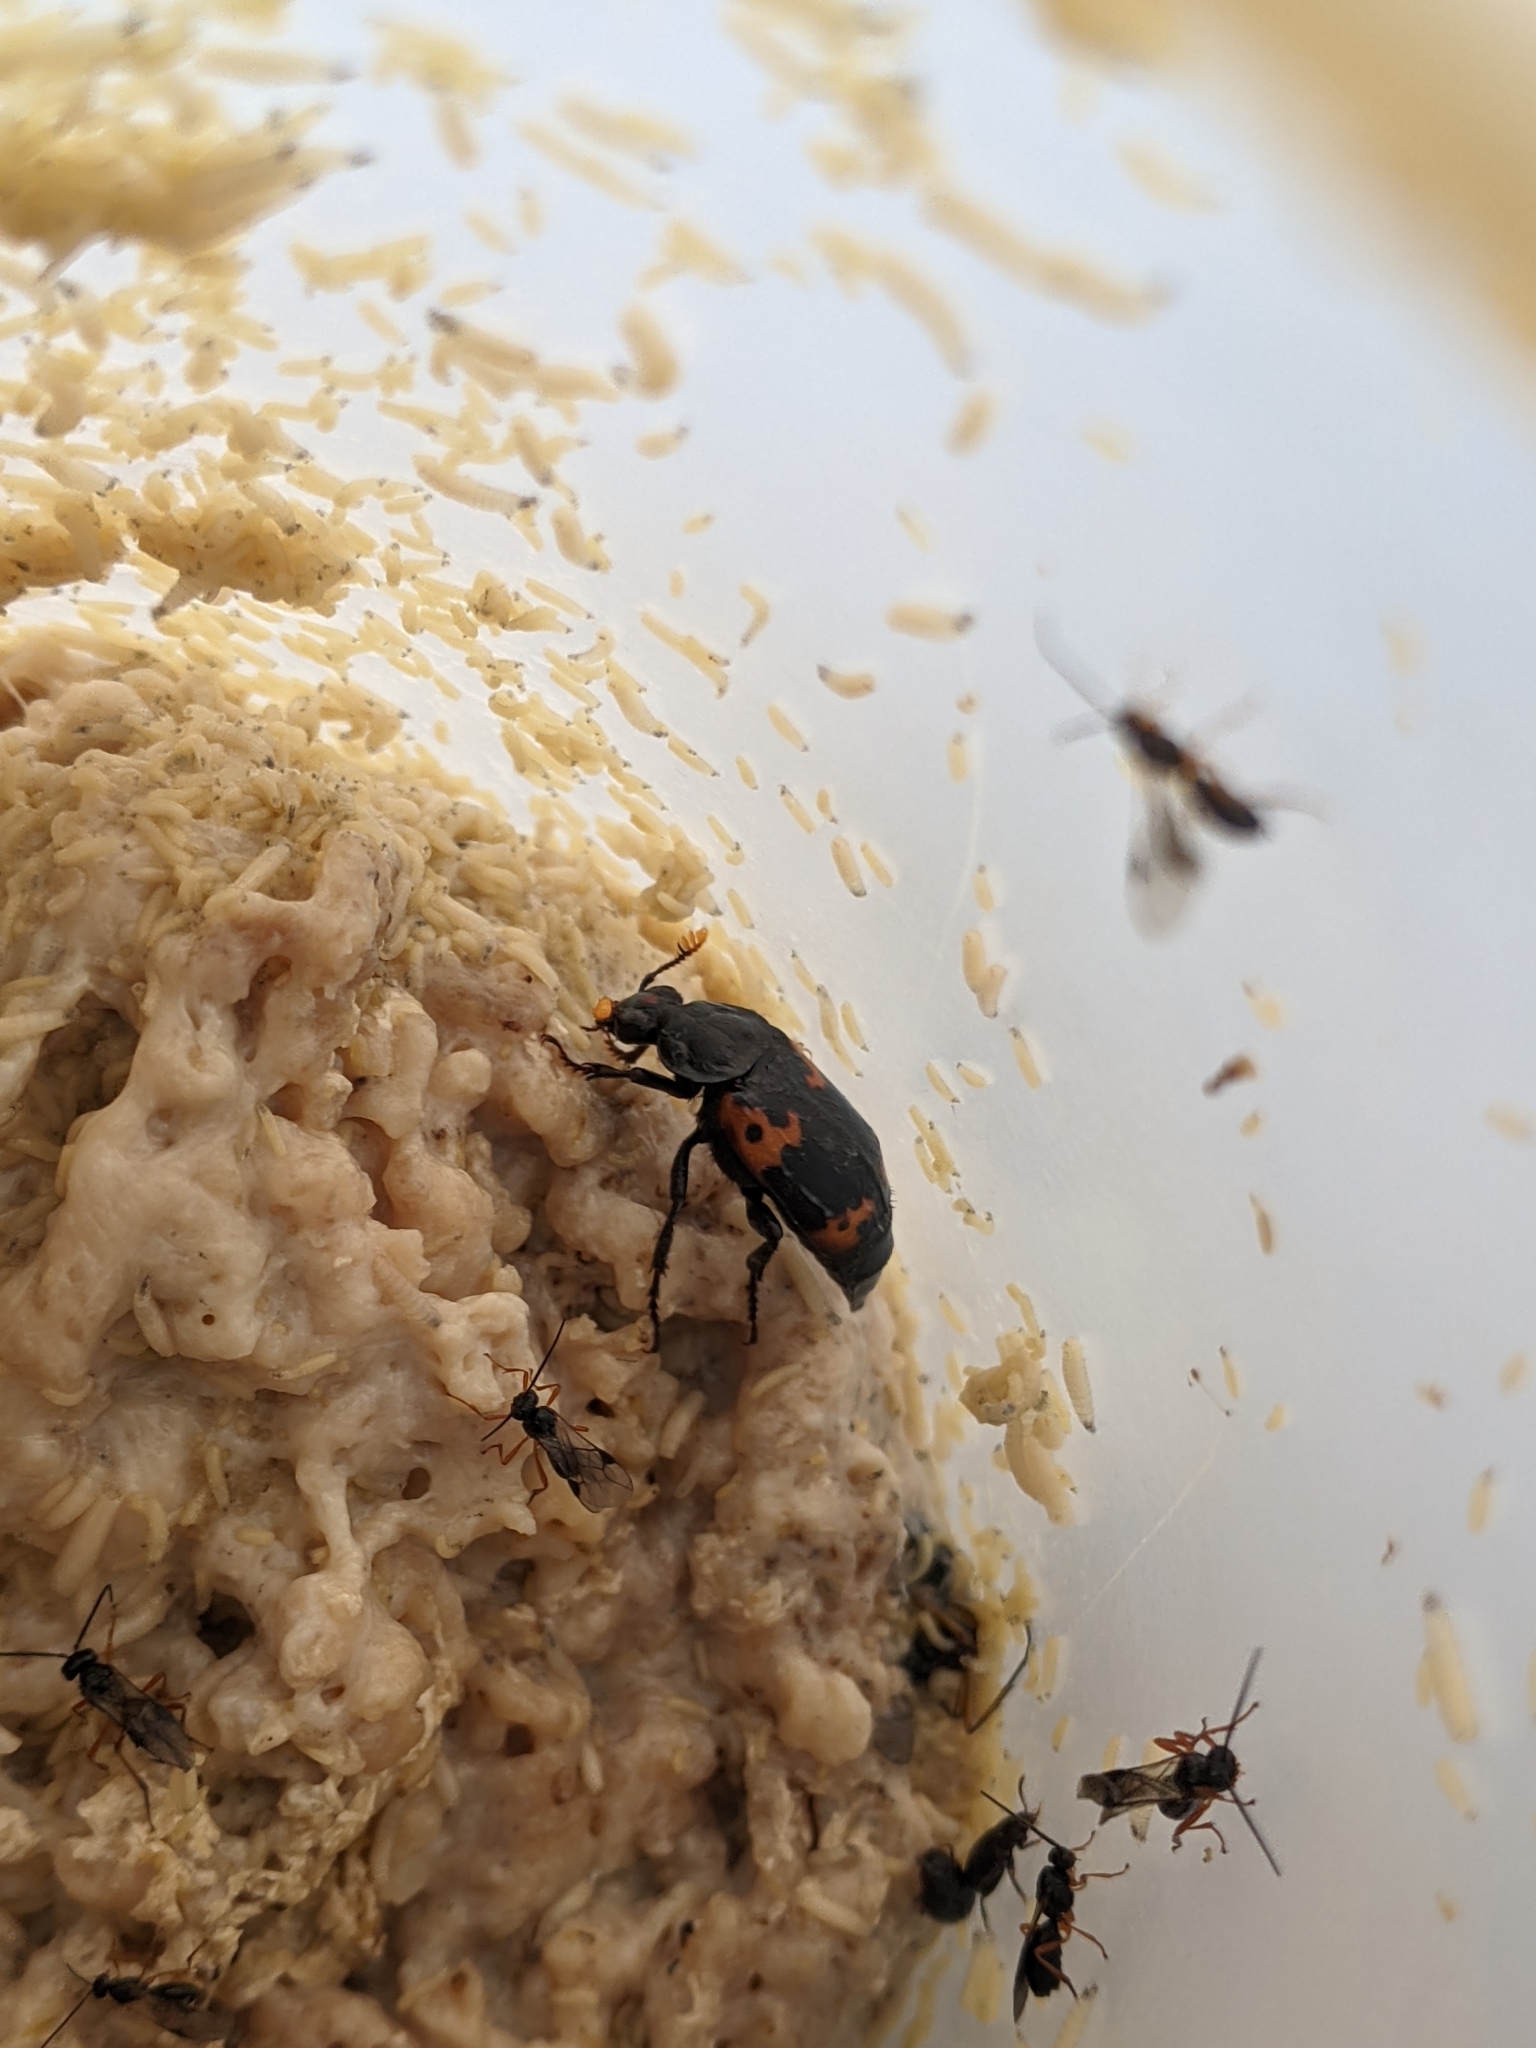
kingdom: Animalia
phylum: Arthropoda
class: Insecta
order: Coleoptera
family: Staphylinidae
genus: Nicrophorus
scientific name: Nicrophorus nepalensis
